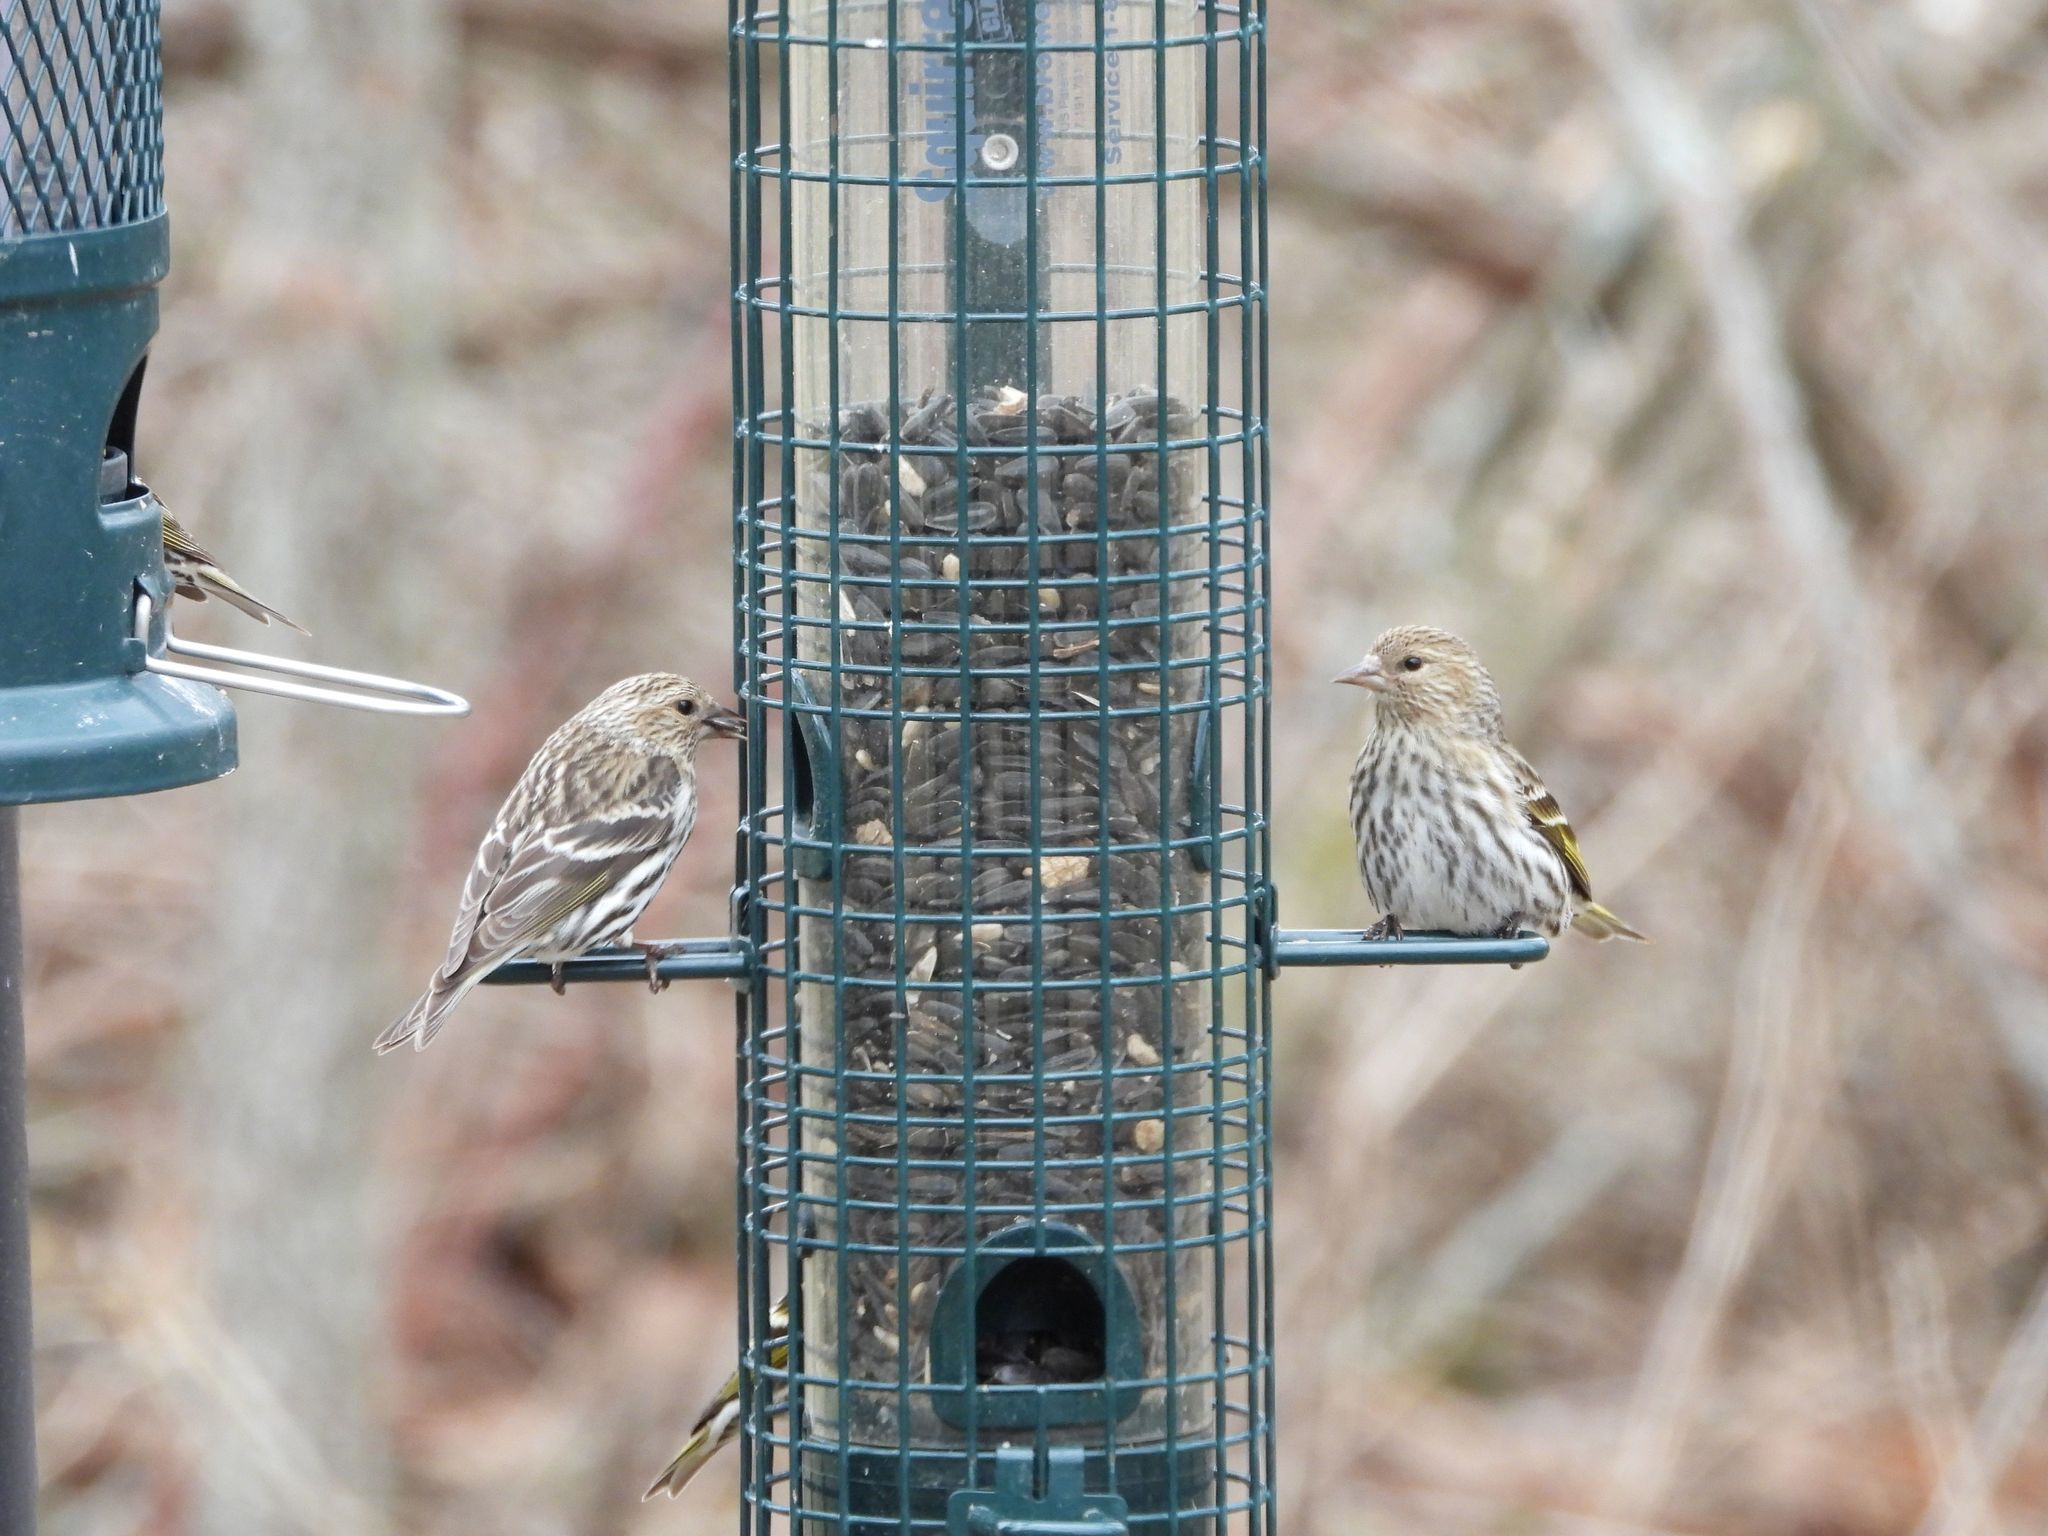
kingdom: Animalia
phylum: Chordata
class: Aves
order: Passeriformes
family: Fringillidae
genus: Spinus
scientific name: Spinus pinus
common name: Pine siskin
